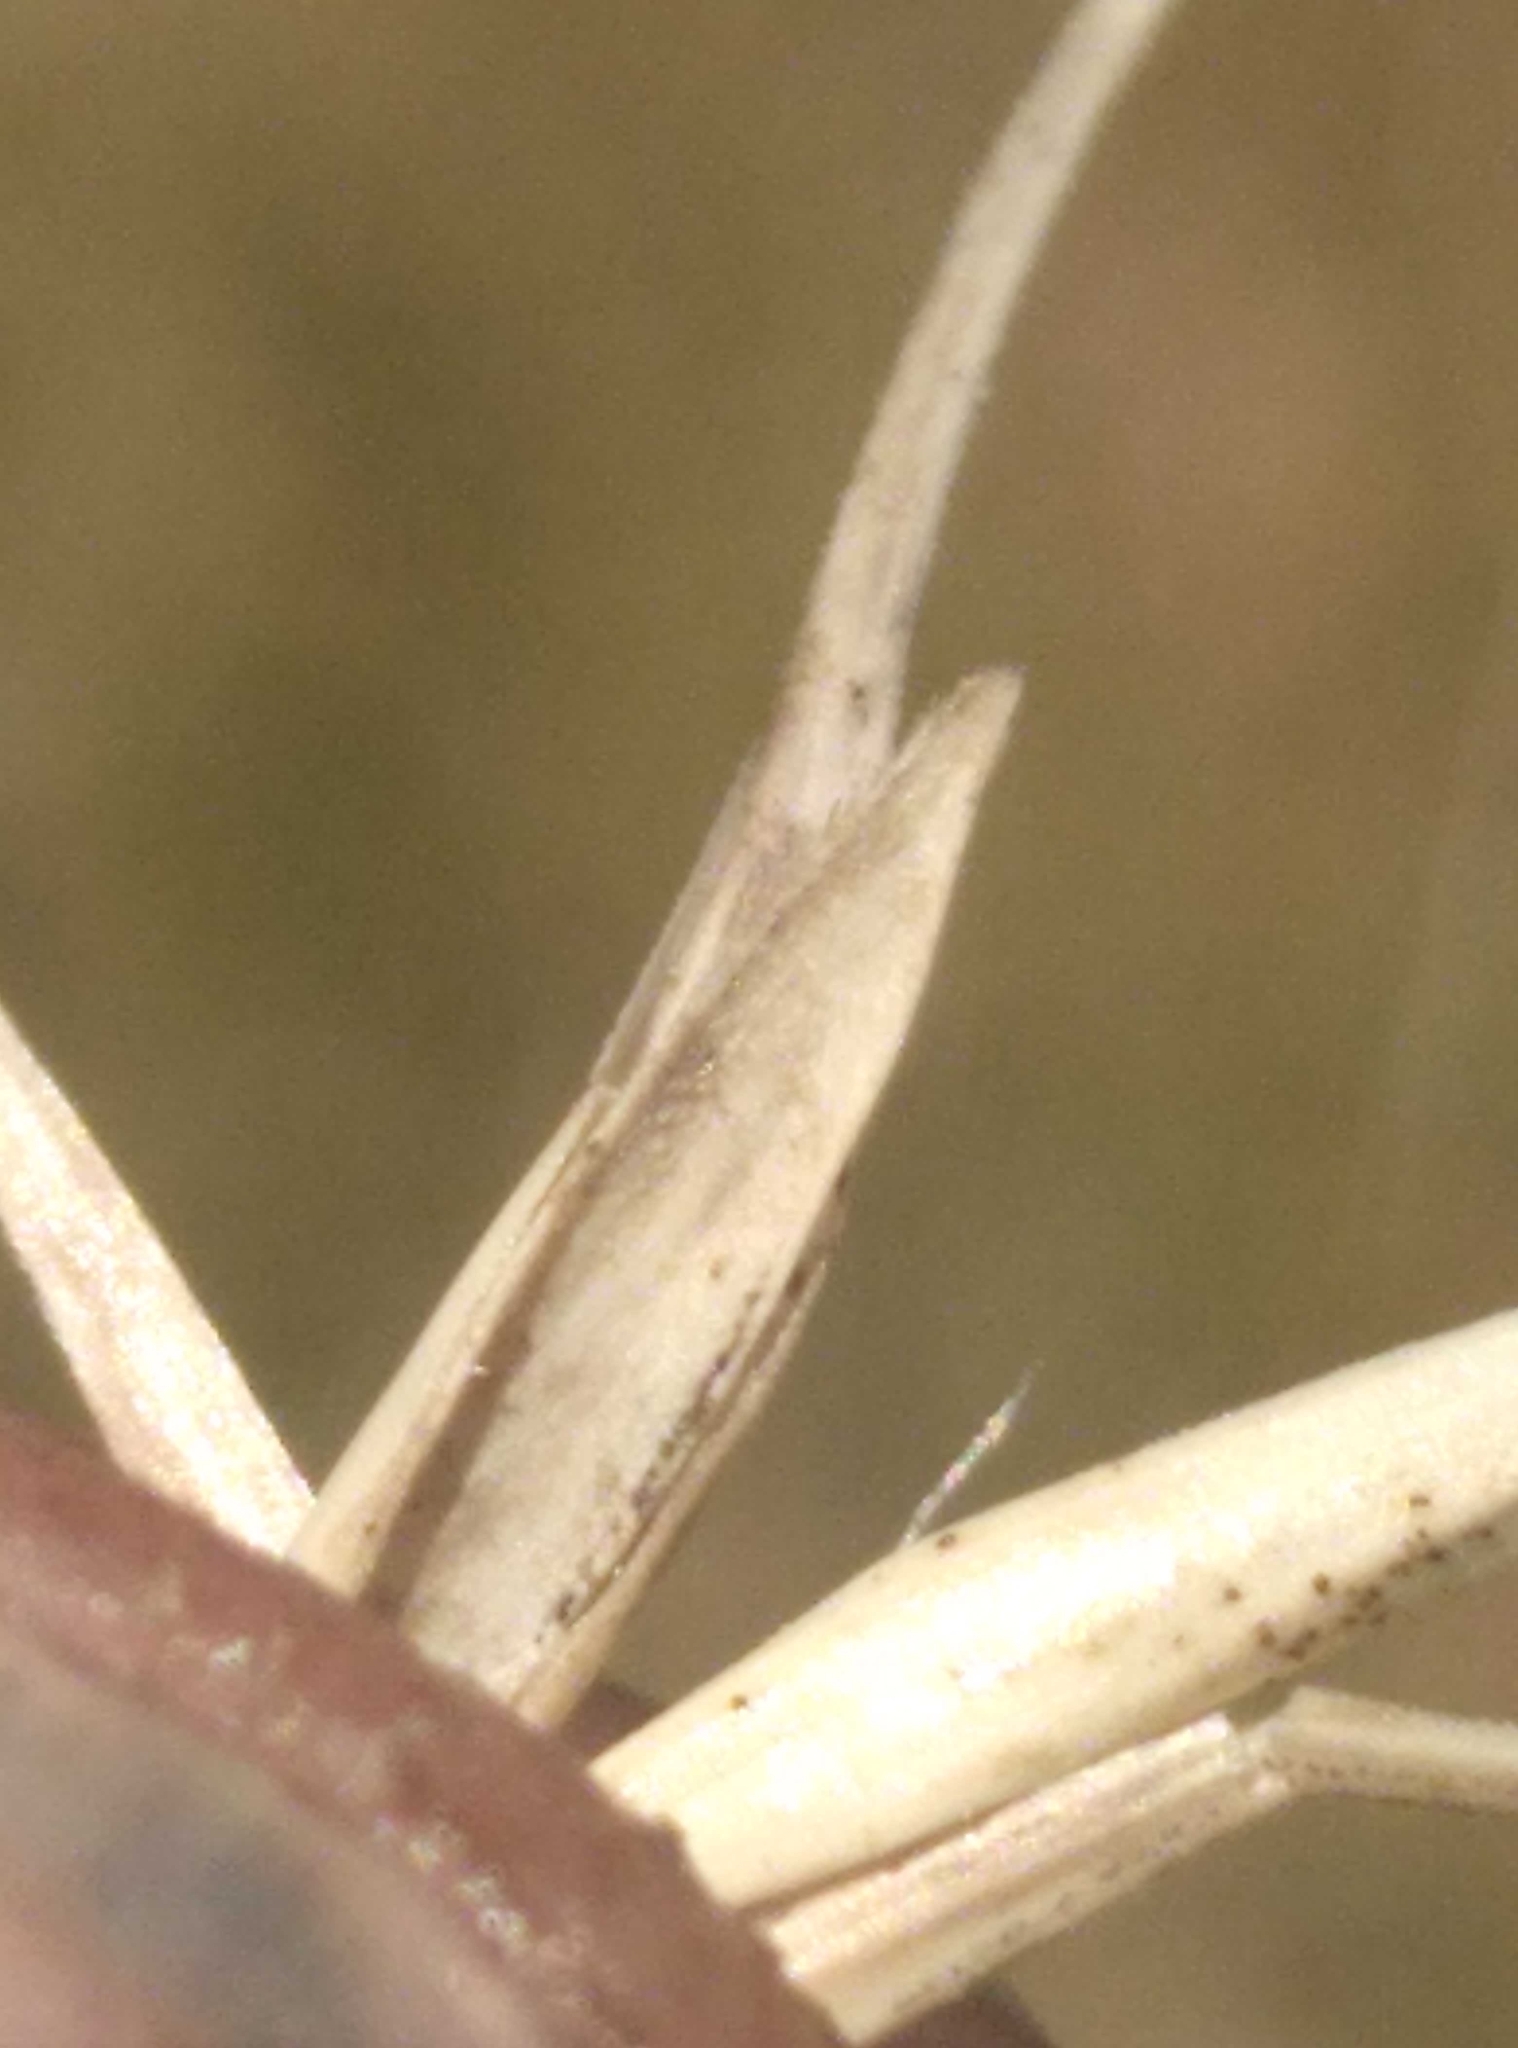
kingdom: Plantae
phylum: Tracheophyta
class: Liliopsida
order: Poales
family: Poaceae
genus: Anthosachne
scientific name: Anthosachne solandri
